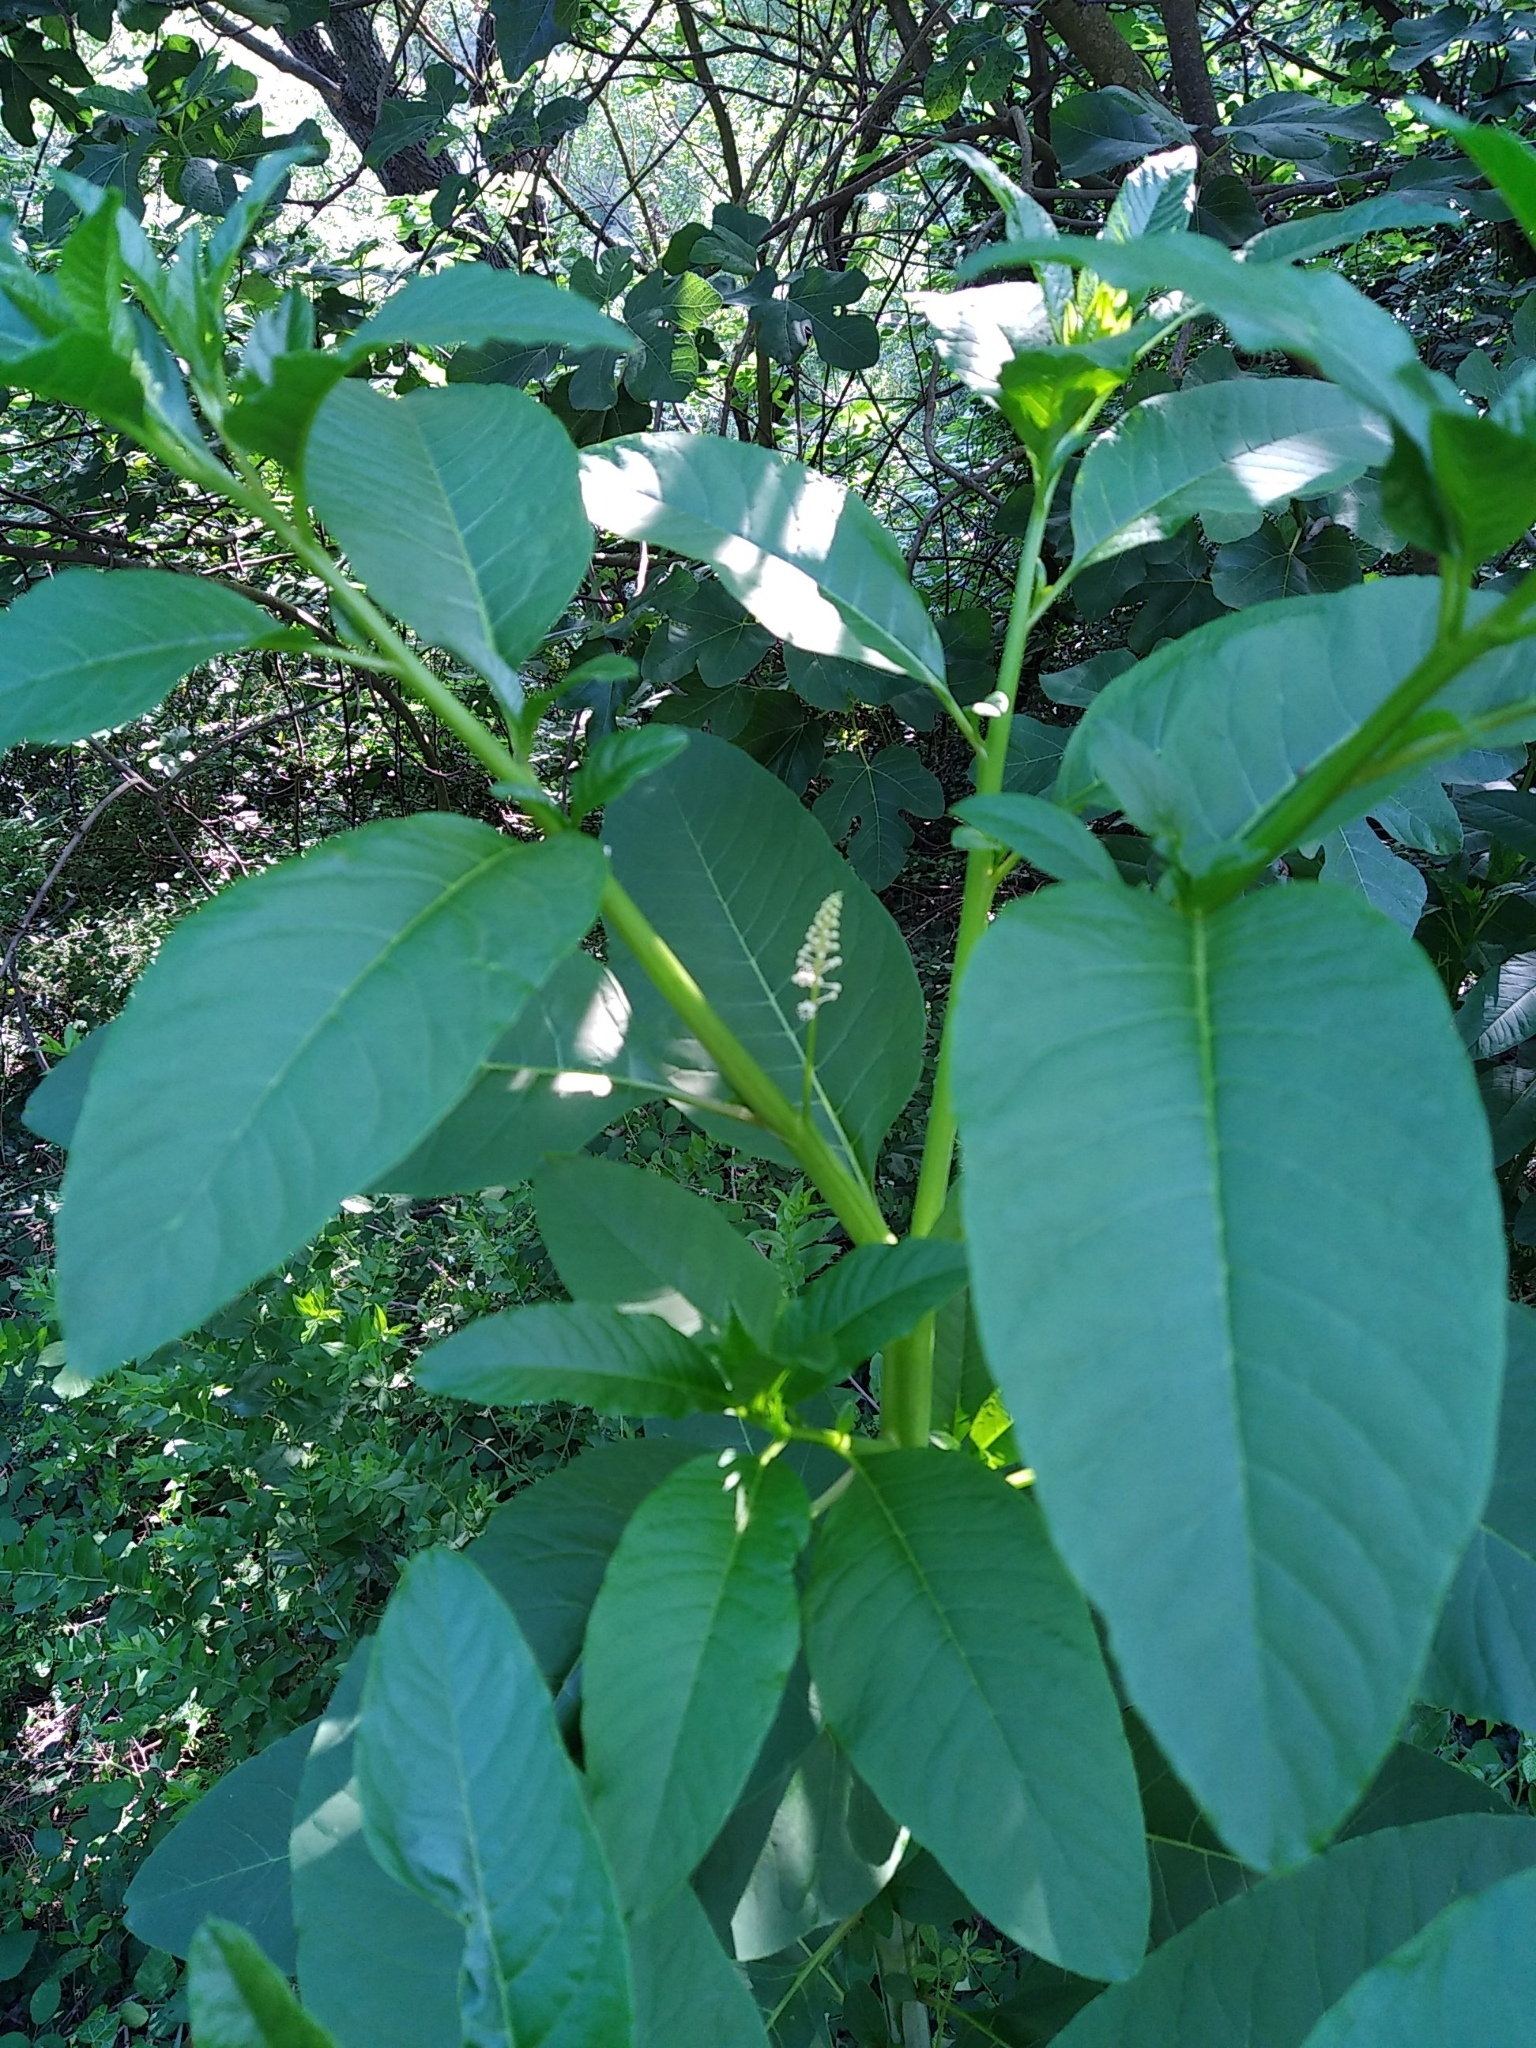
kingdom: Plantae
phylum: Tracheophyta
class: Magnoliopsida
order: Caryophyllales
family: Phytolaccaceae
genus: Phytolacca
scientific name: Phytolacca americana
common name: American pokeweed
